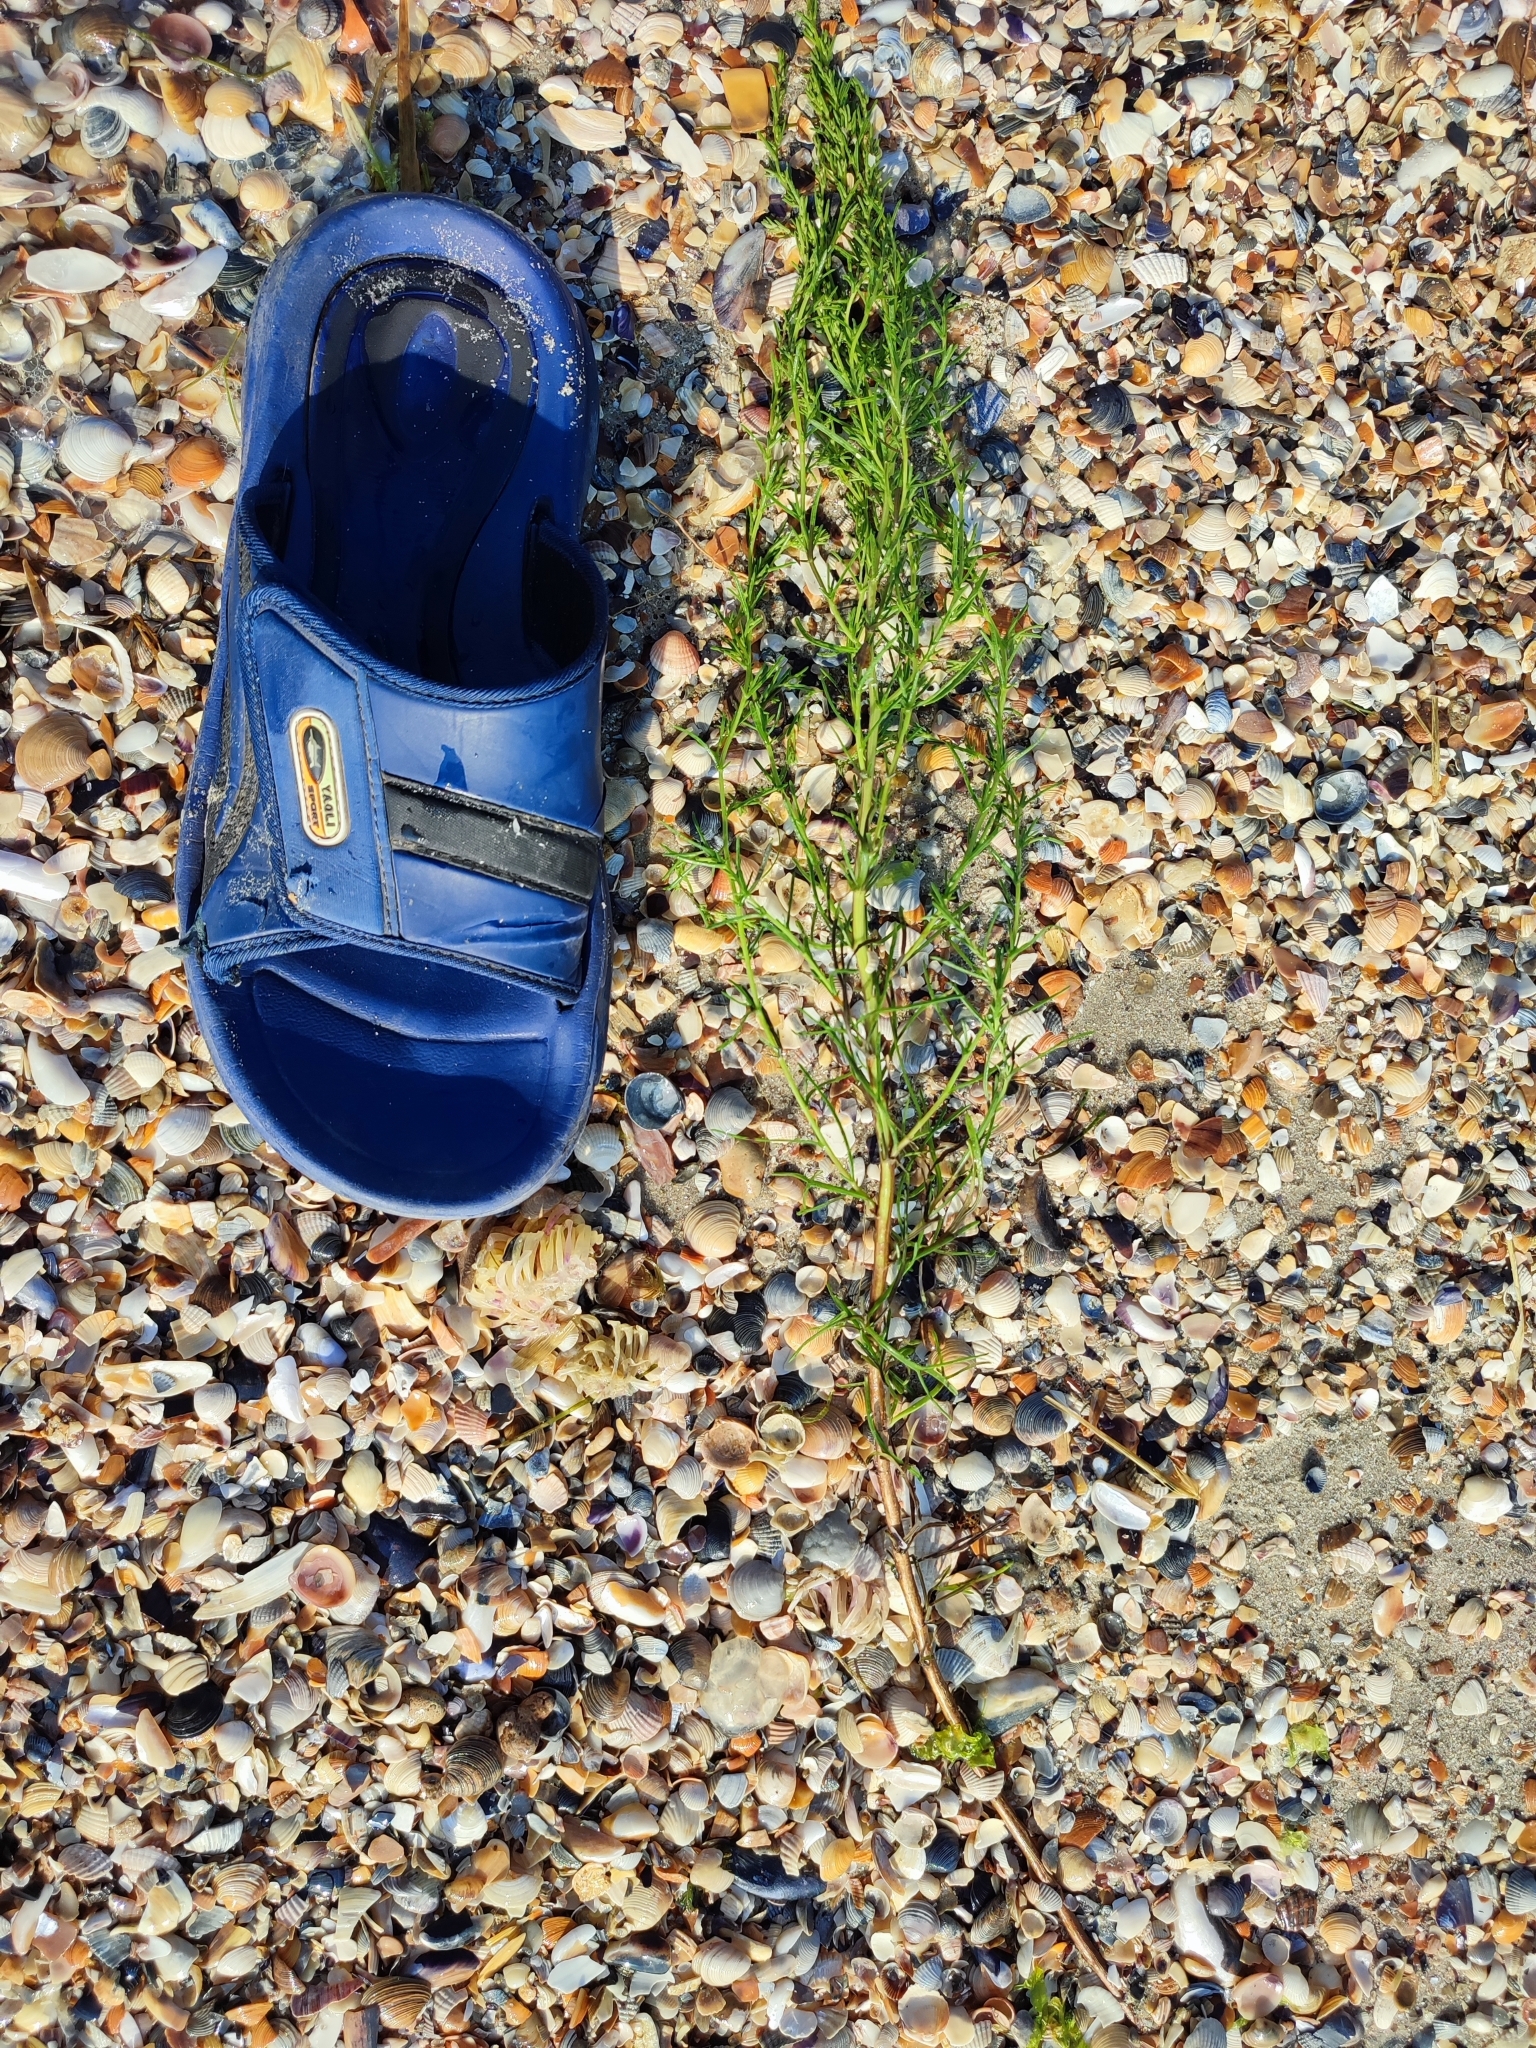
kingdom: Plantae
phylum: Tracheophyta
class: Magnoliopsida
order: Caryophyllales
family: Amaranthaceae
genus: Salsola
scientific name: Salsola soda
